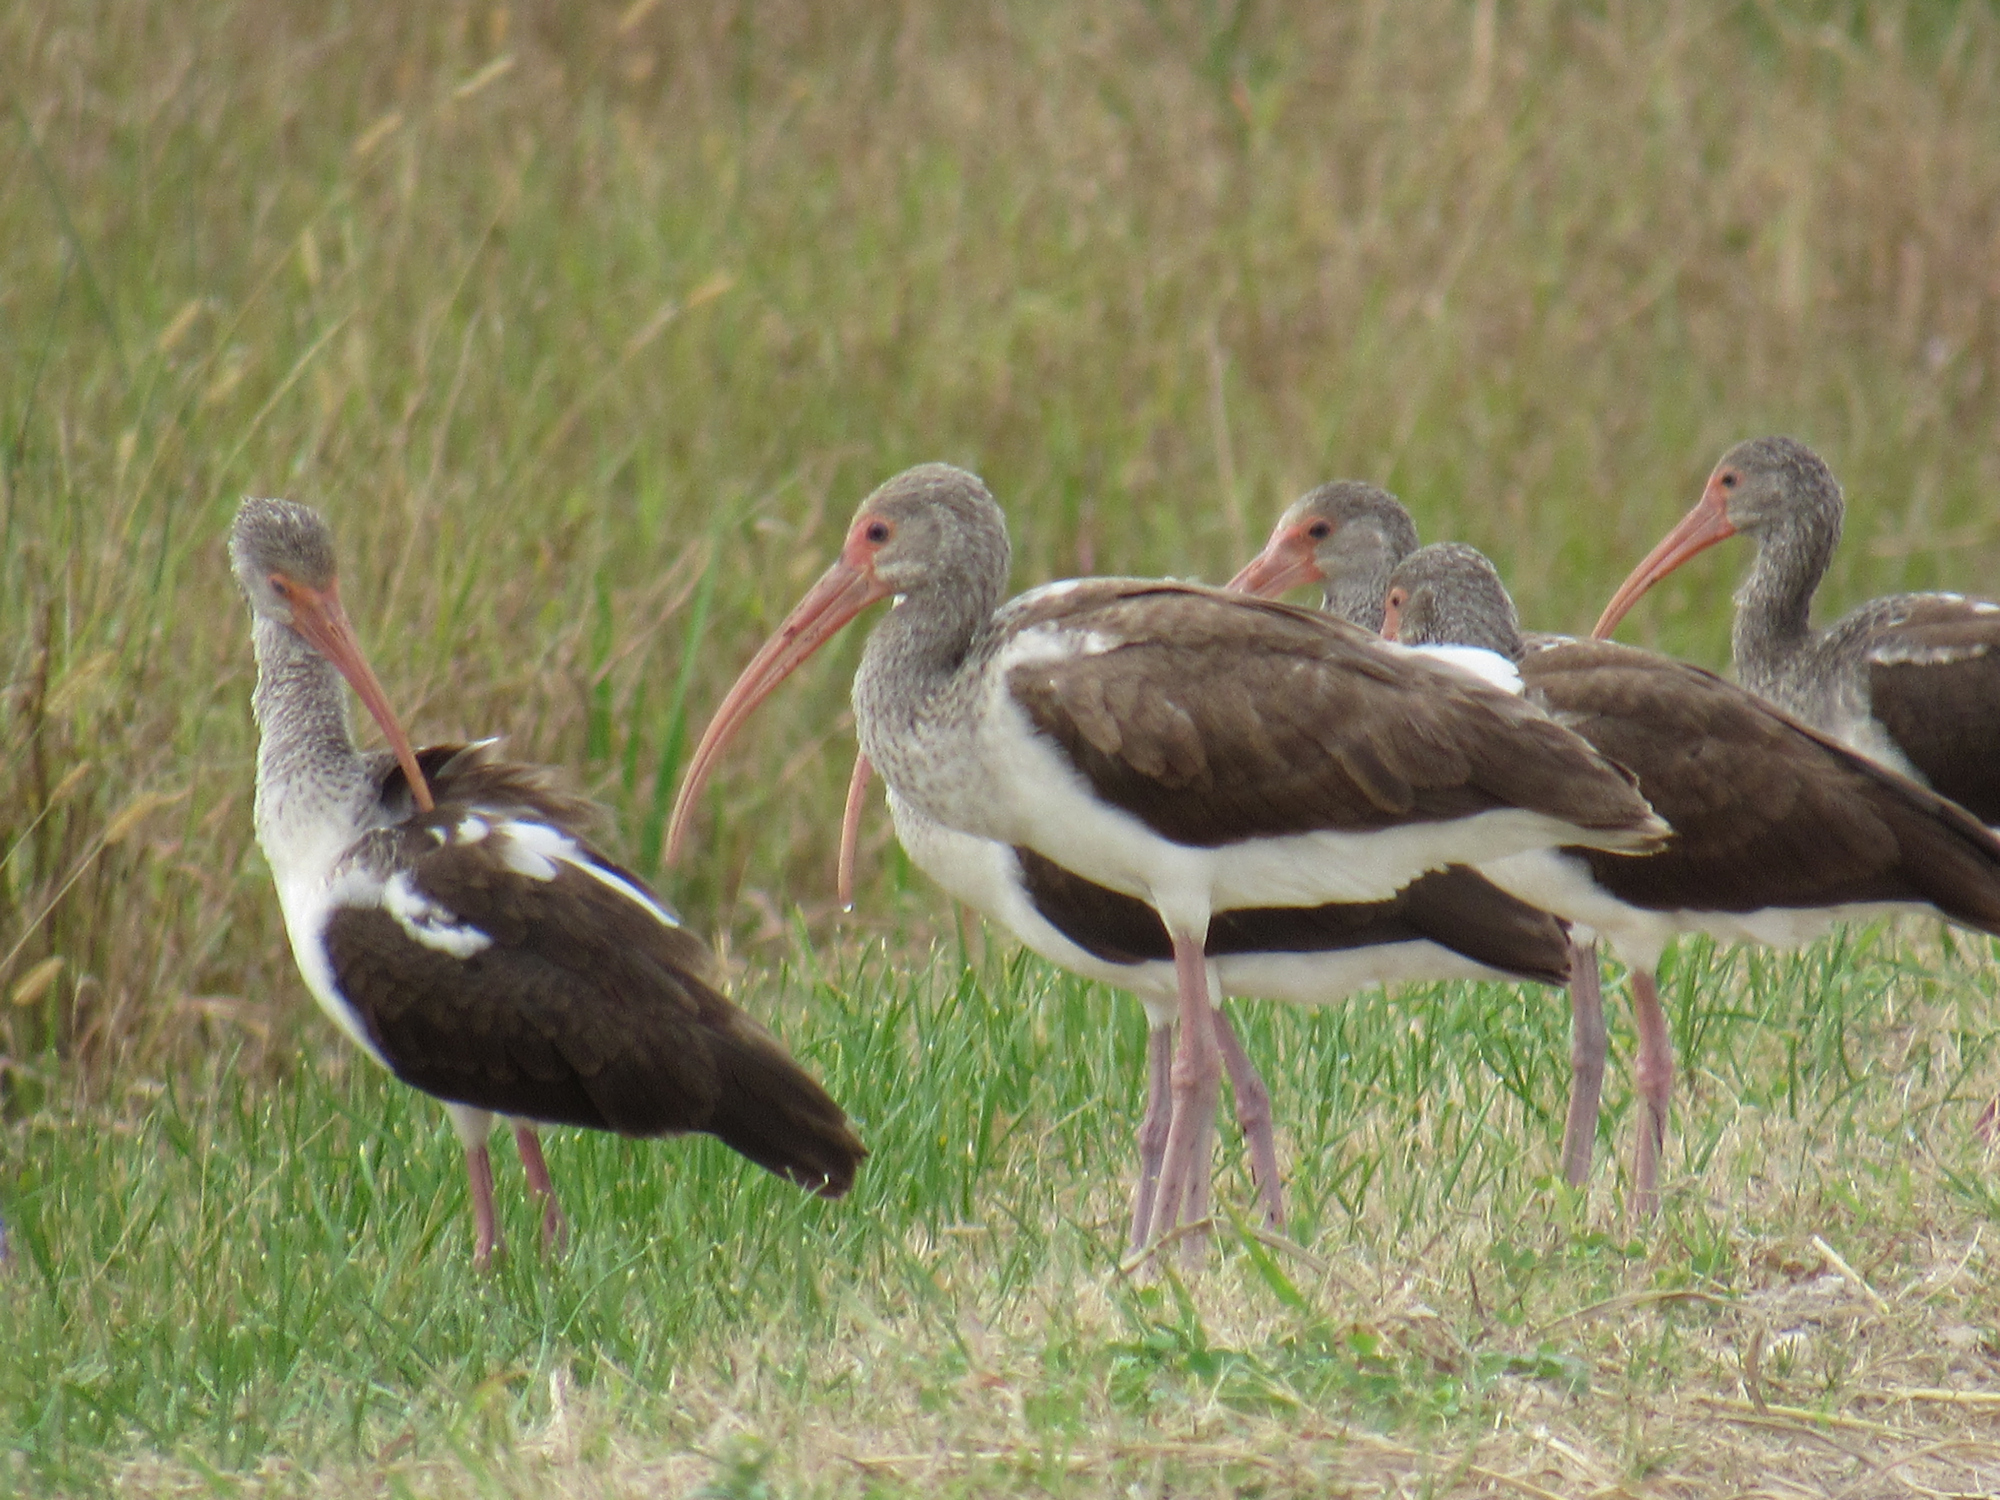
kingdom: Animalia
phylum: Chordata
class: Aves
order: Pelecaniformes
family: Threskiornithidae
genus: Eudocimus
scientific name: Eudocimus albus
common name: White ibis
